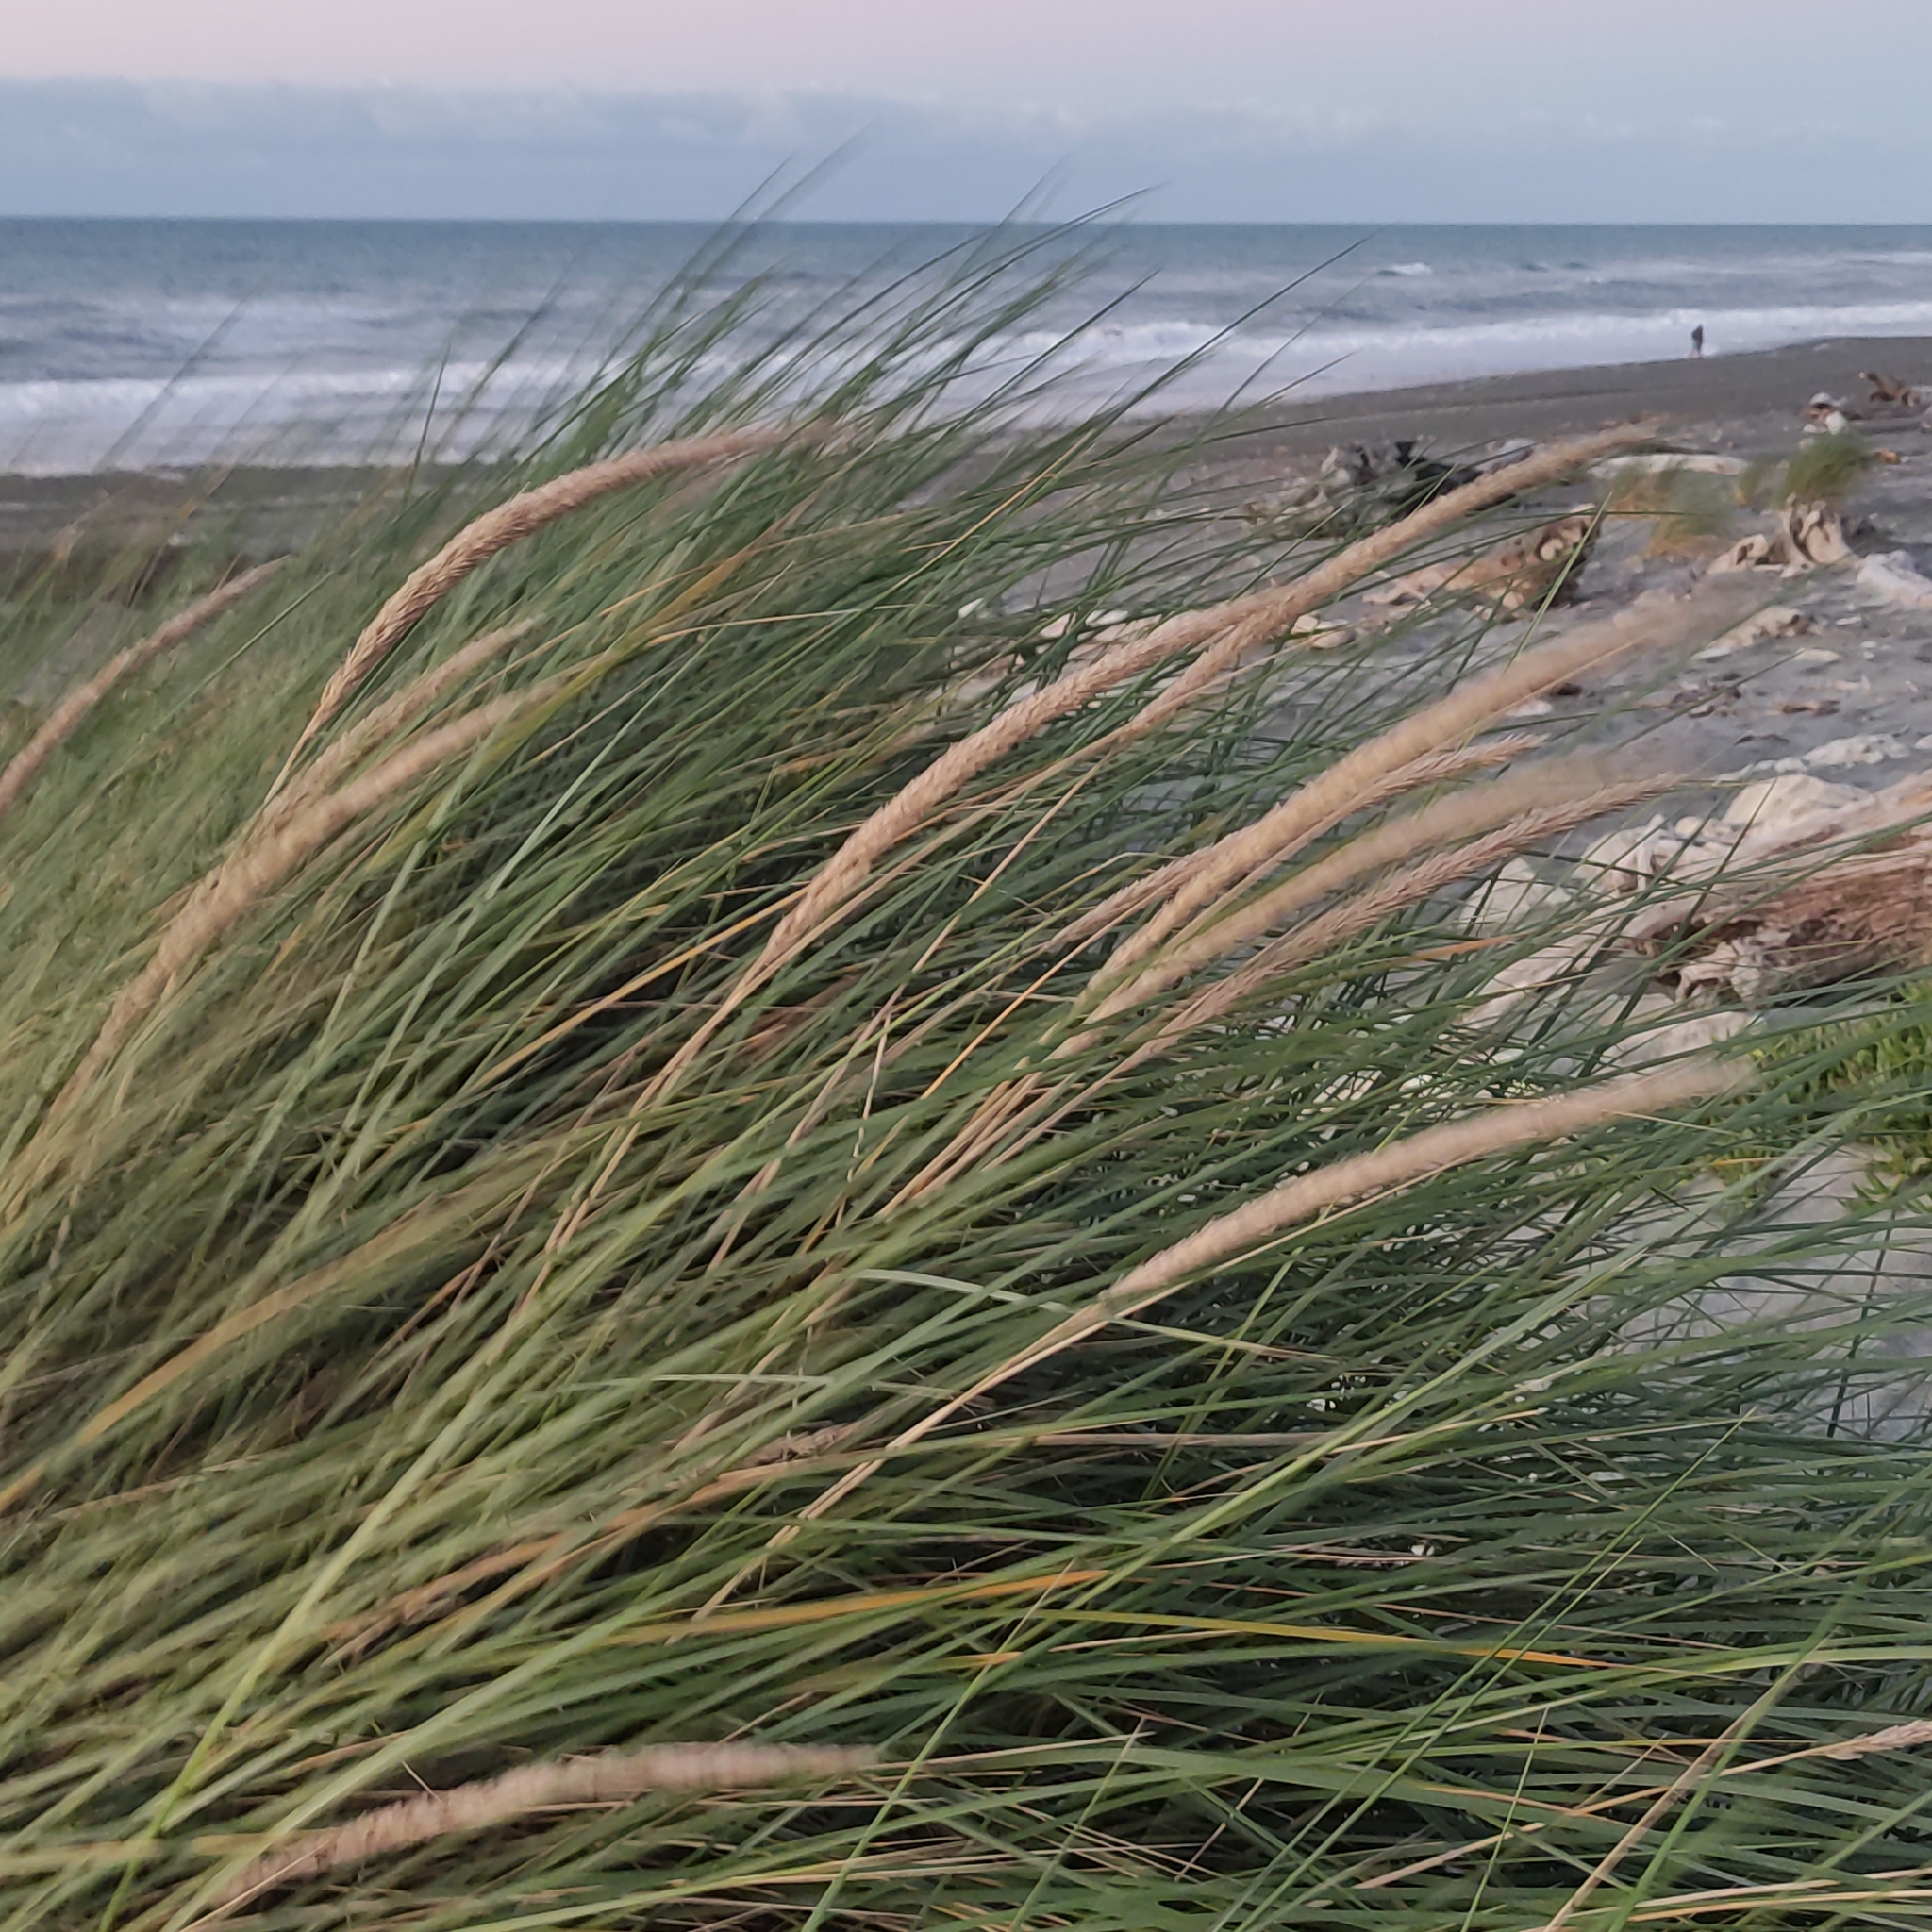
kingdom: Plantae
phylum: Tracheophyta
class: Liliopsida
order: Poales
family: Poaceae
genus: Calamagrostis
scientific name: Calamagrostis arenaria
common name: European beachgrass
